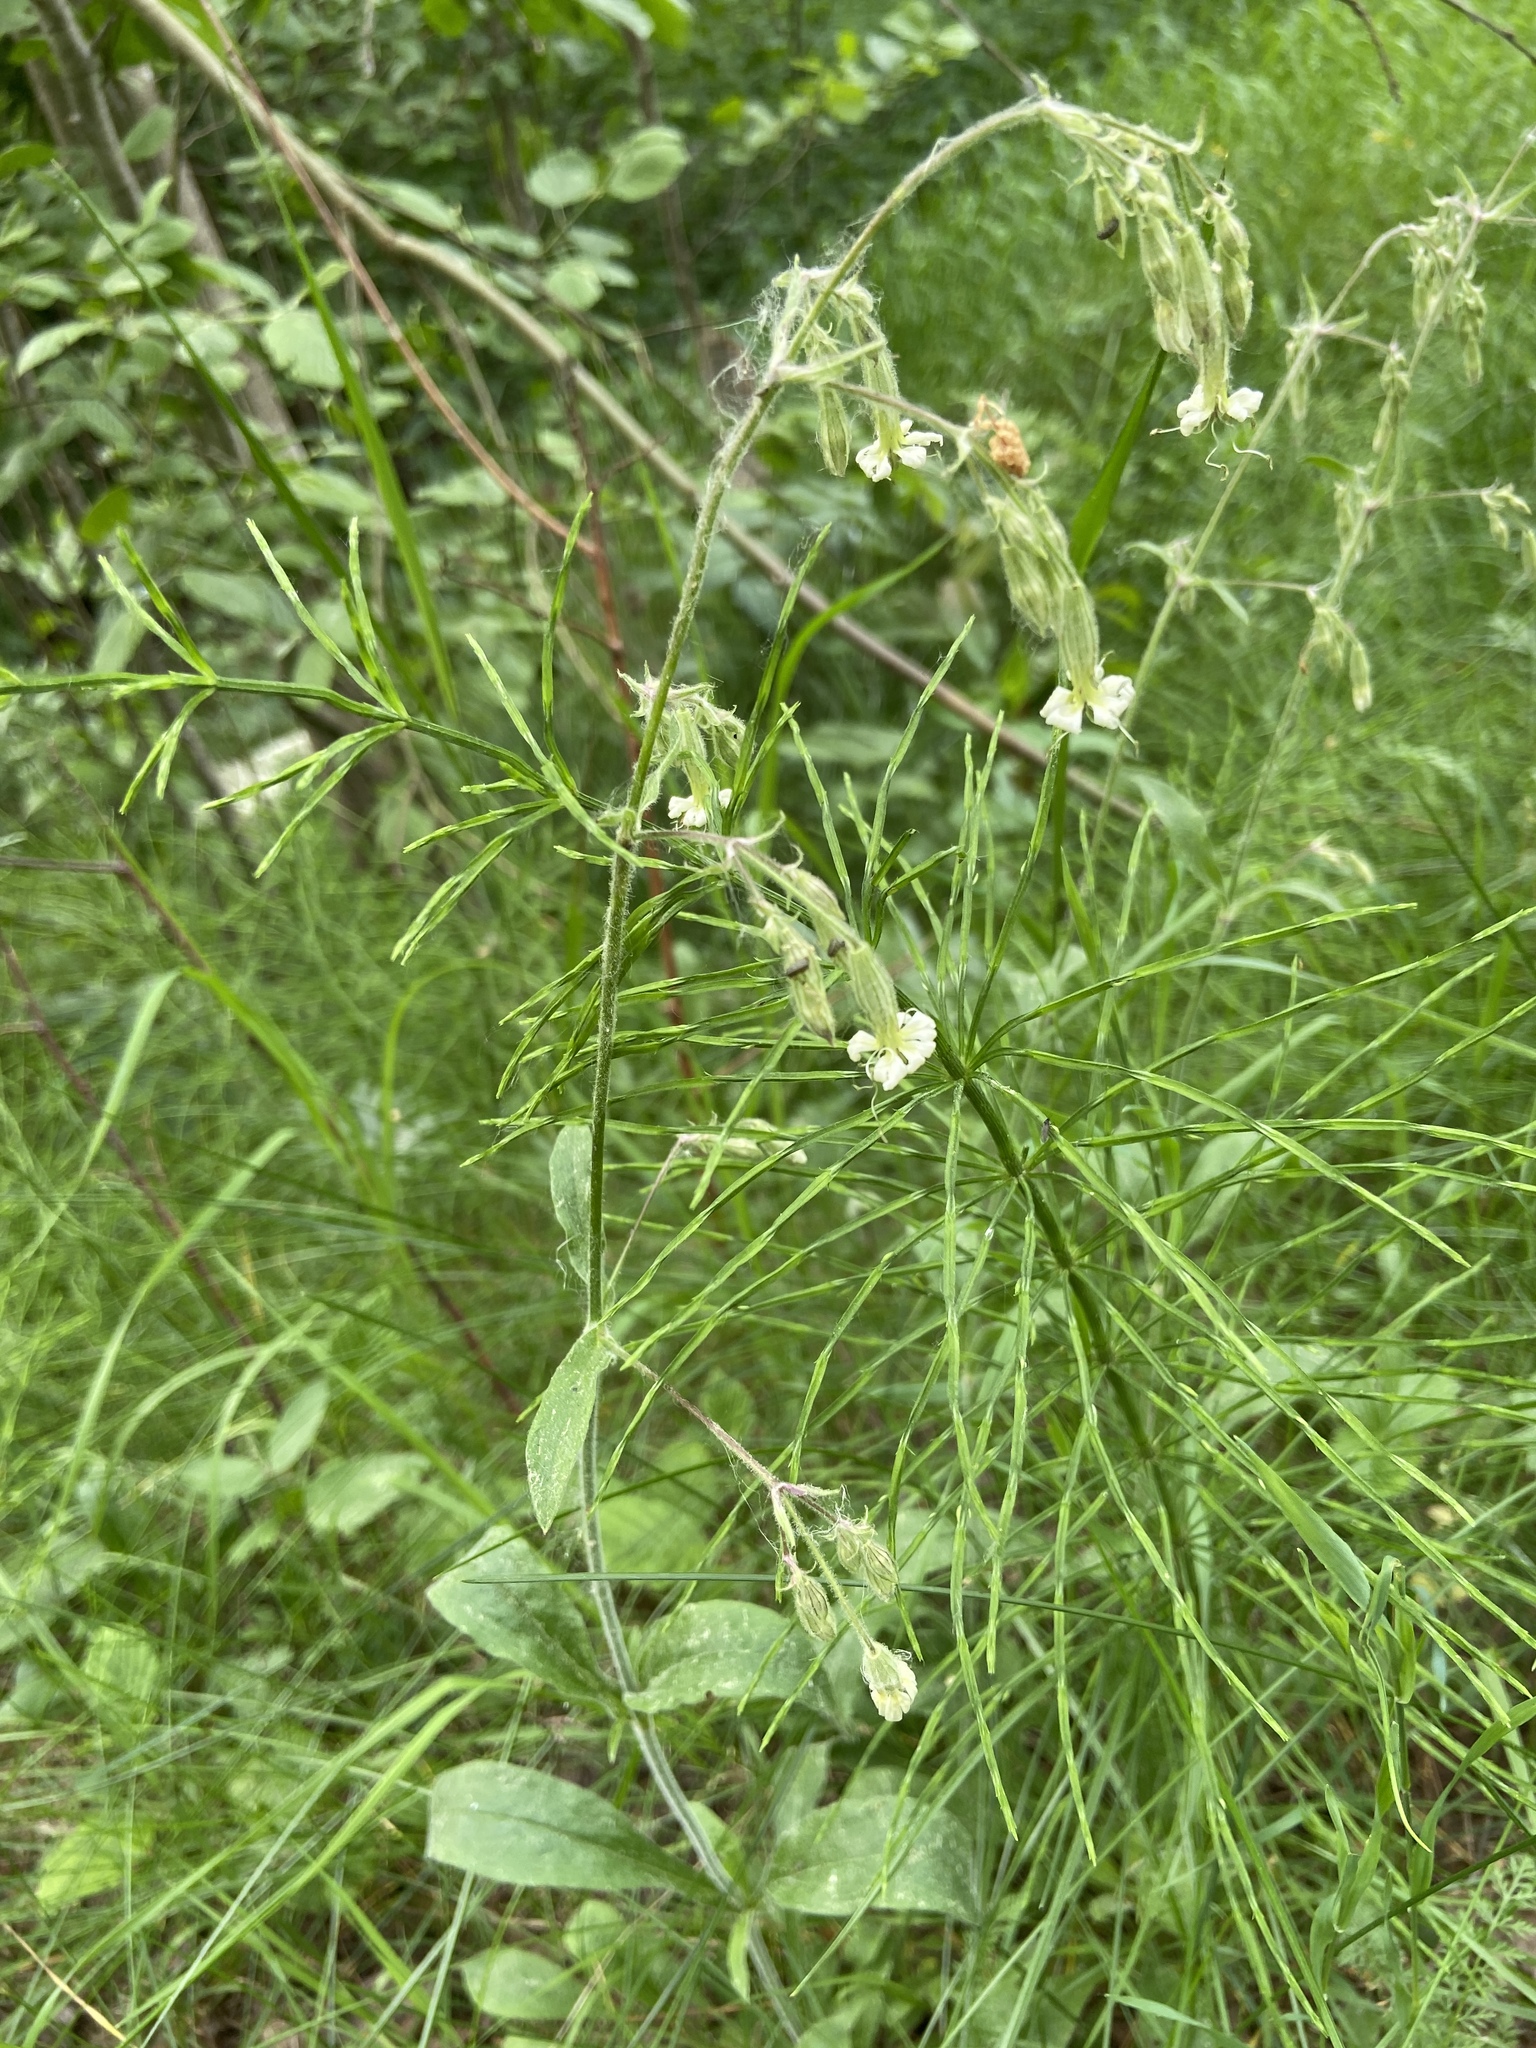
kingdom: Plantae
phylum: Tracheophyta
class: Magnoliopsida
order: Caryophyllales
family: Caryophyllaceae
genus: Silene
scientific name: Silene nutans
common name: Nottingham catchfly
